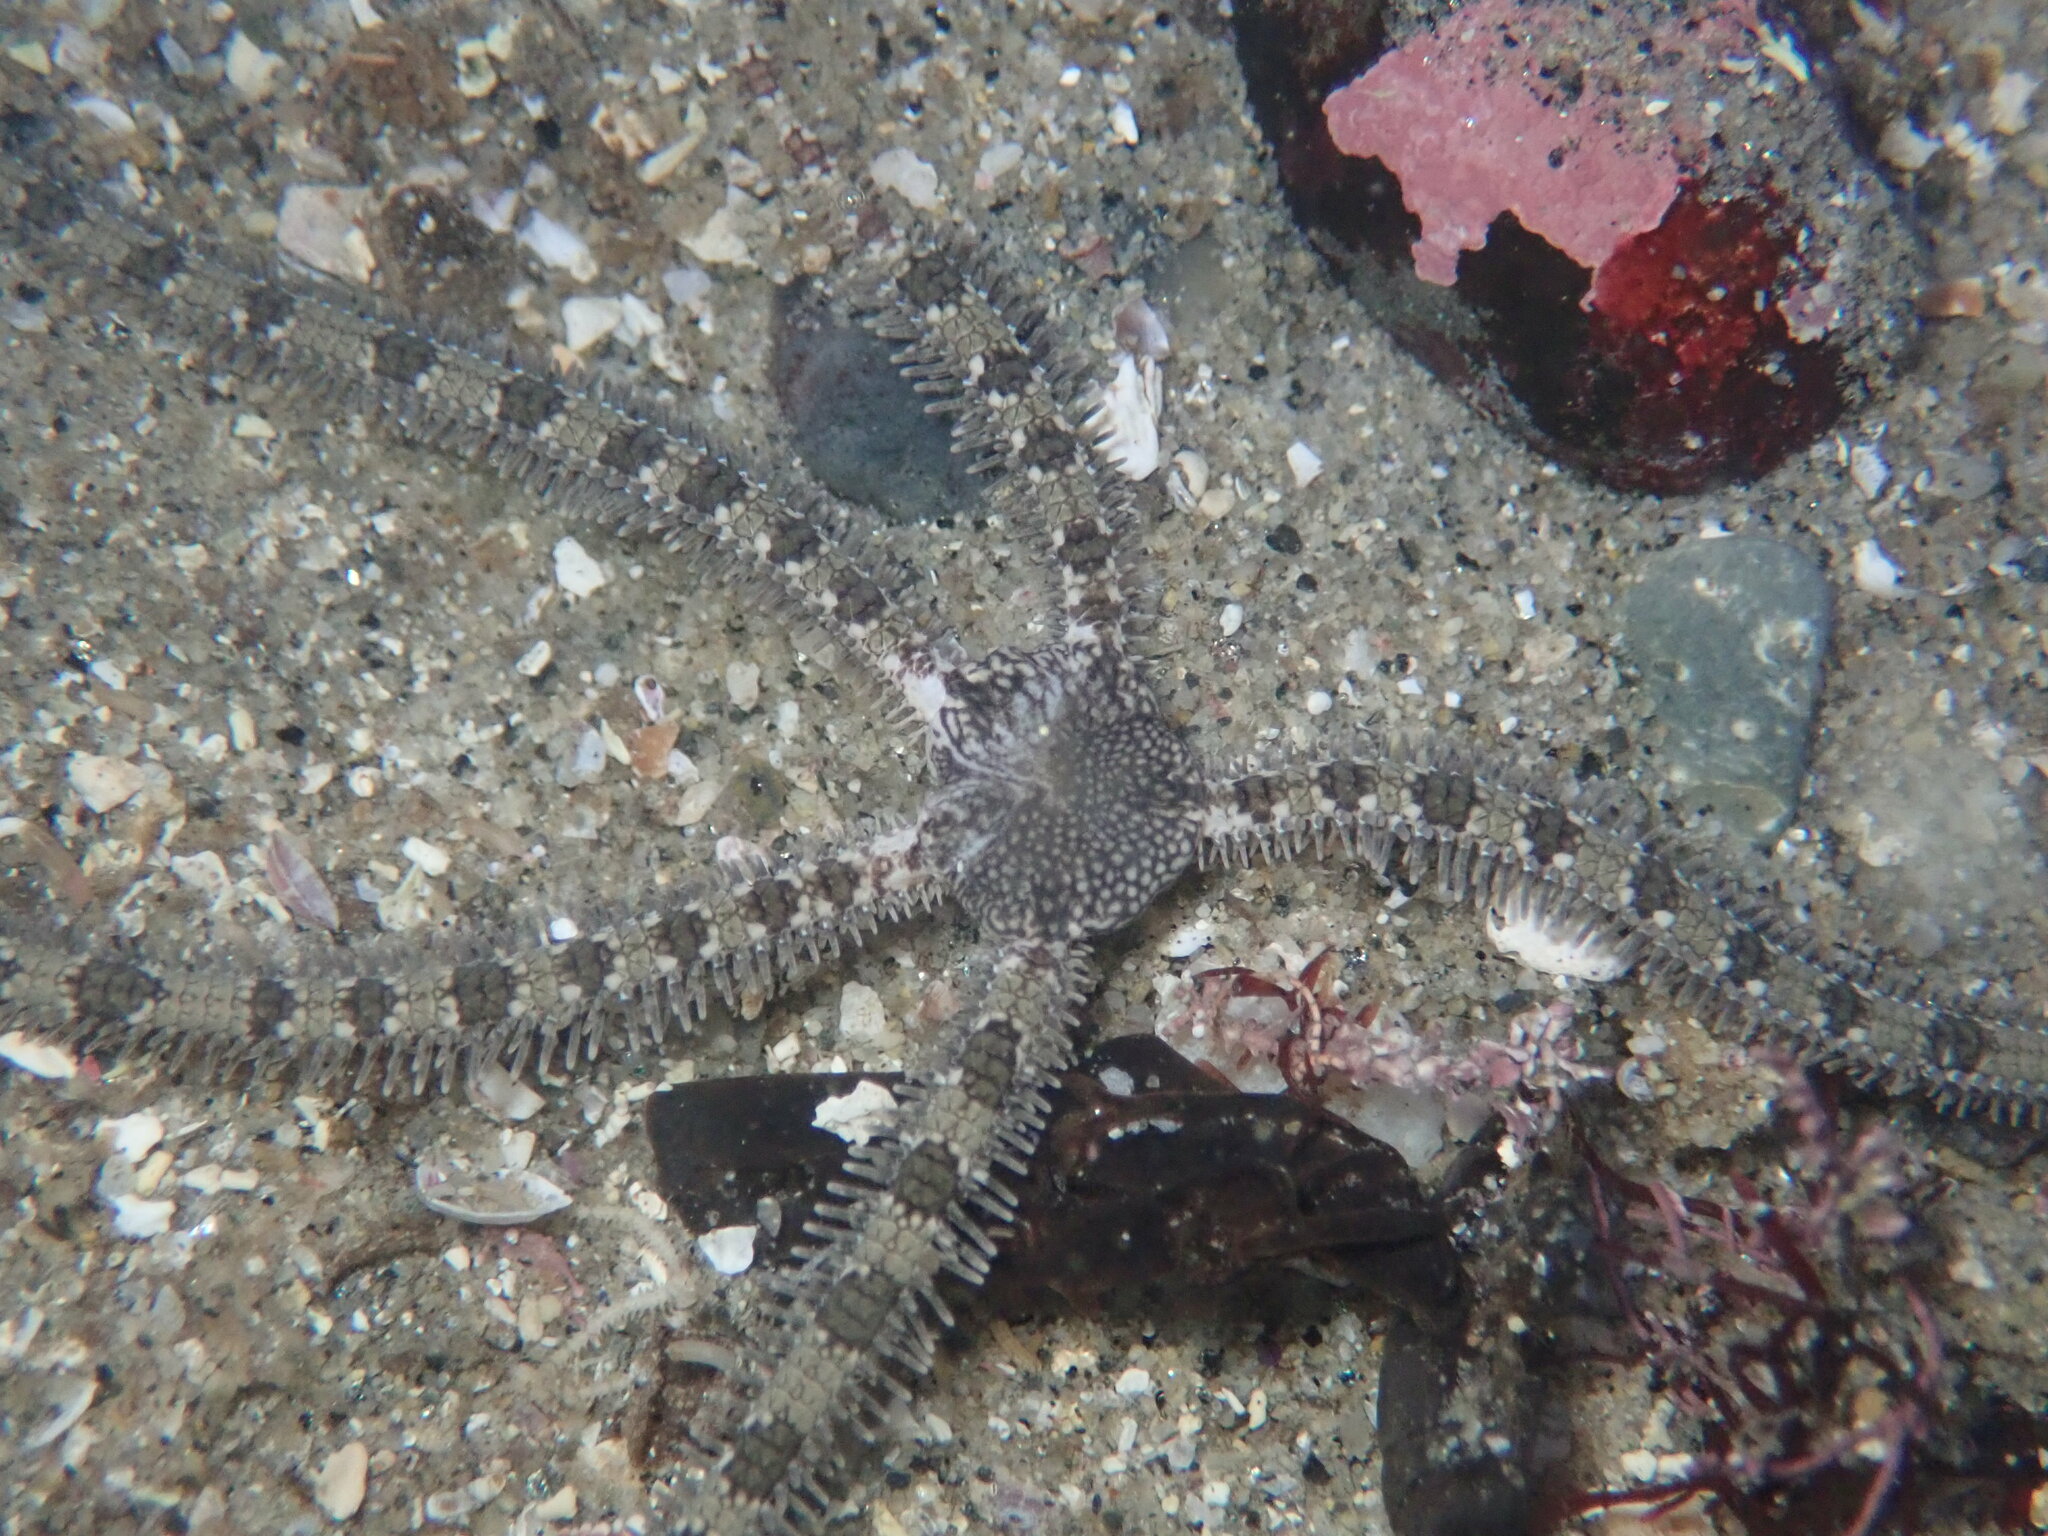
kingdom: Animalia
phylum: Echinodermata
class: Ophiuroidea
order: Amphilepidida
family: Ophionereididae
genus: Ophionereis
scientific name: Ophionereis annulata
